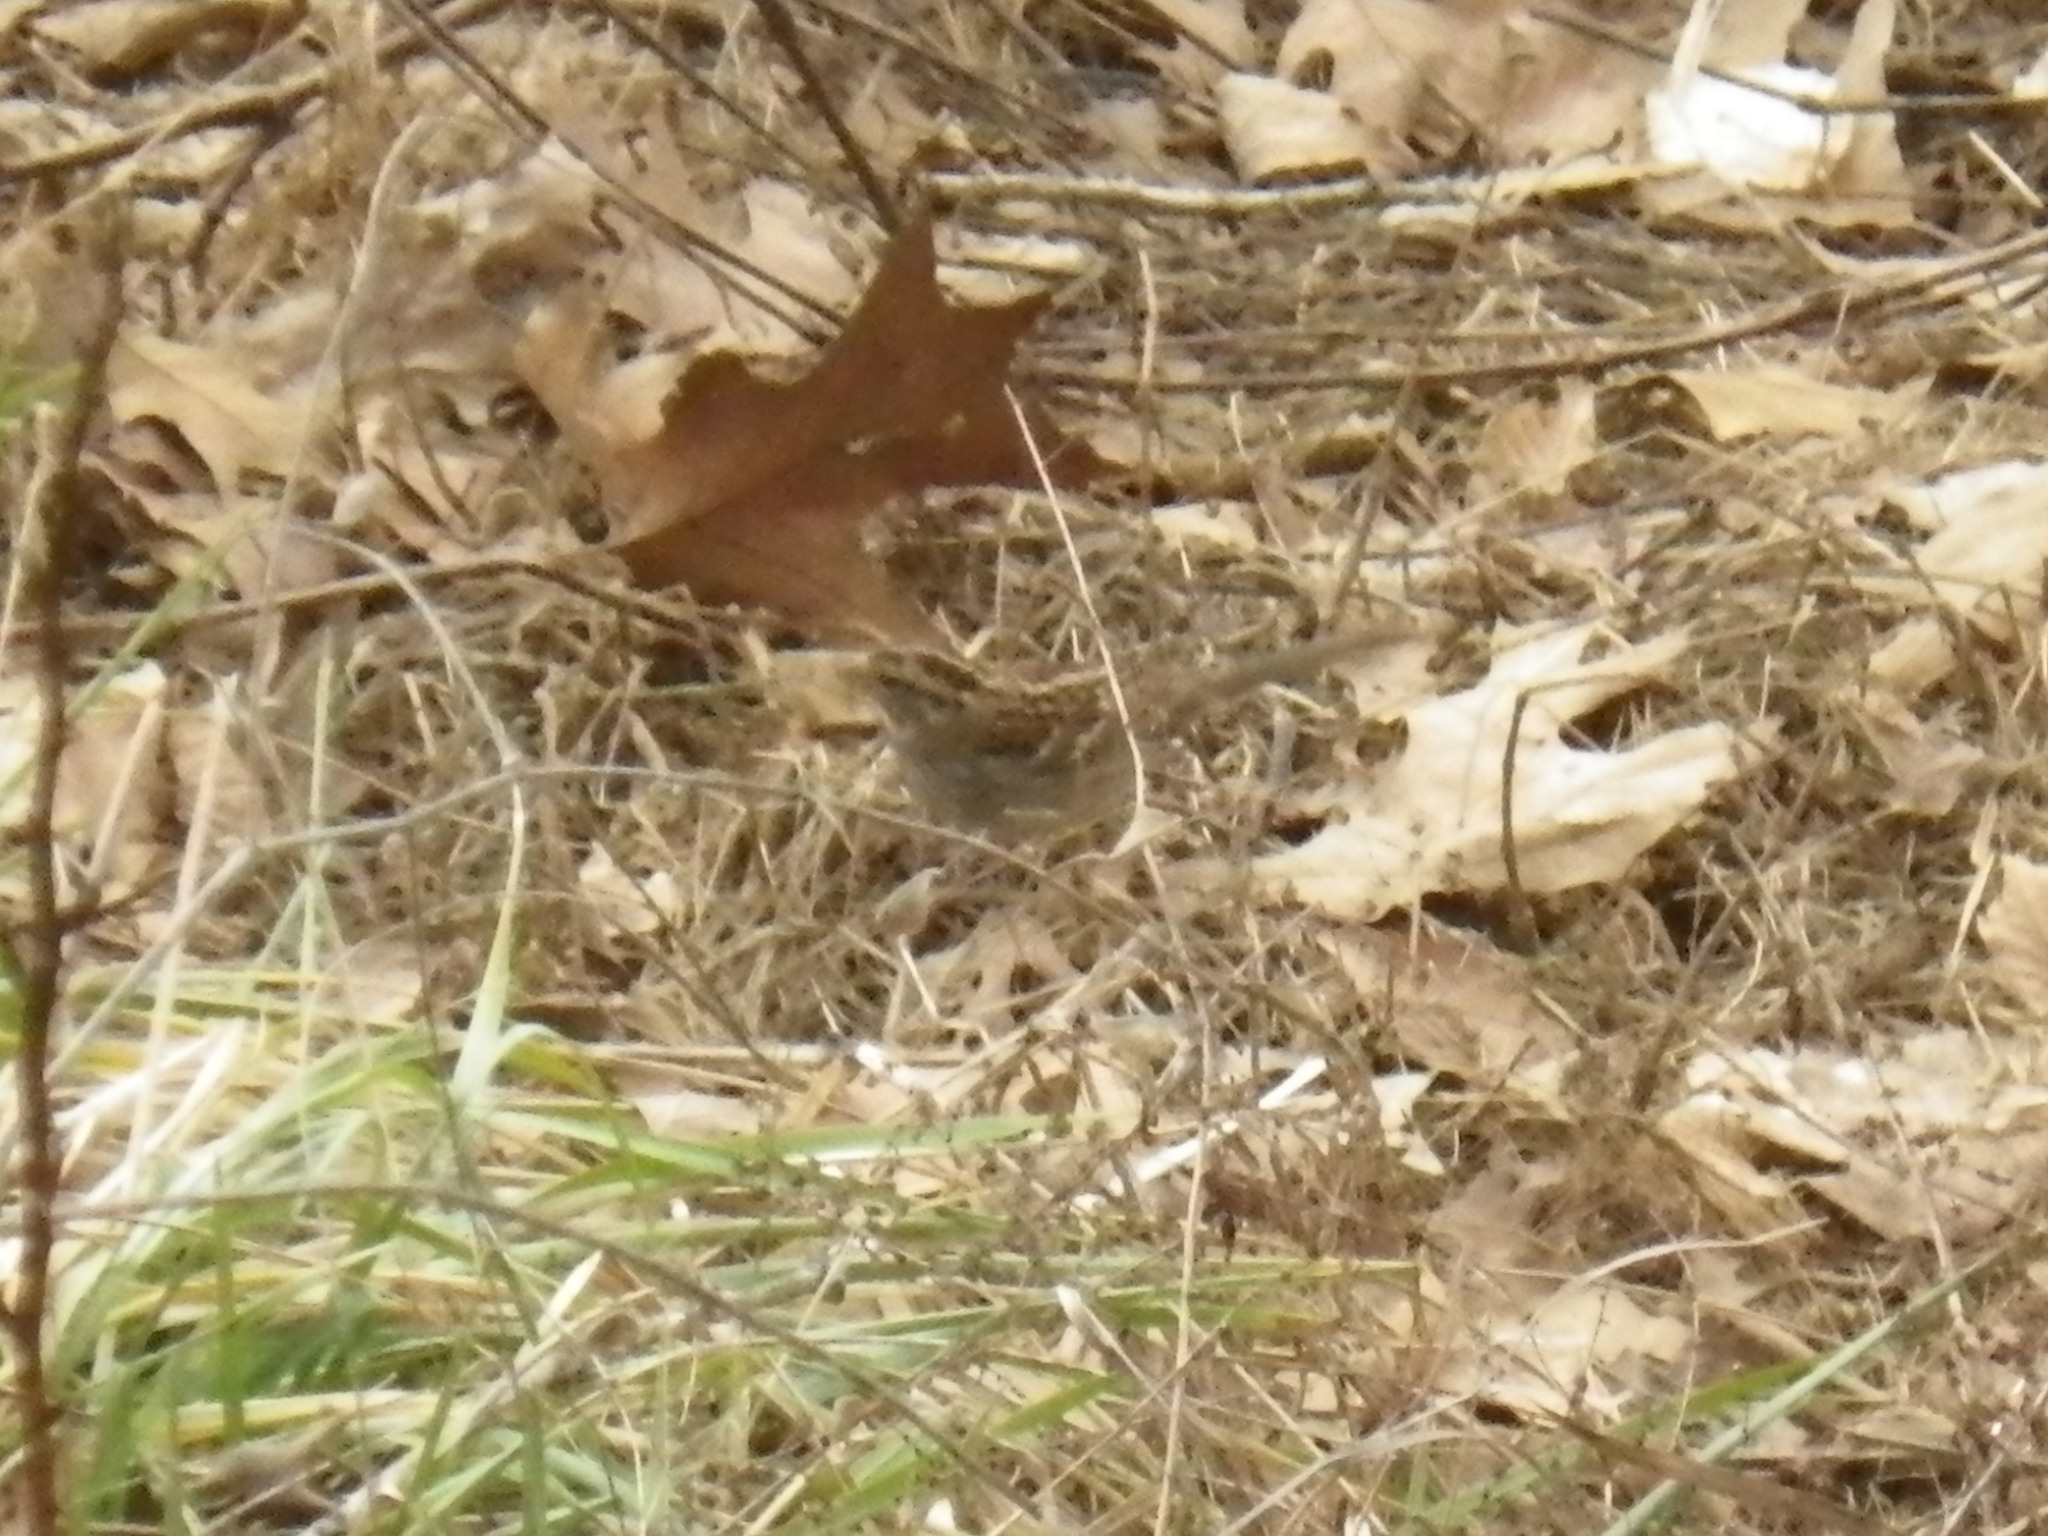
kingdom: Animalia
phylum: Chordata
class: Aves
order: Passeriformes
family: Passerellidae
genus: Zonotrichia
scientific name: Zonotrichia albicollis
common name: White-throated sparrow
